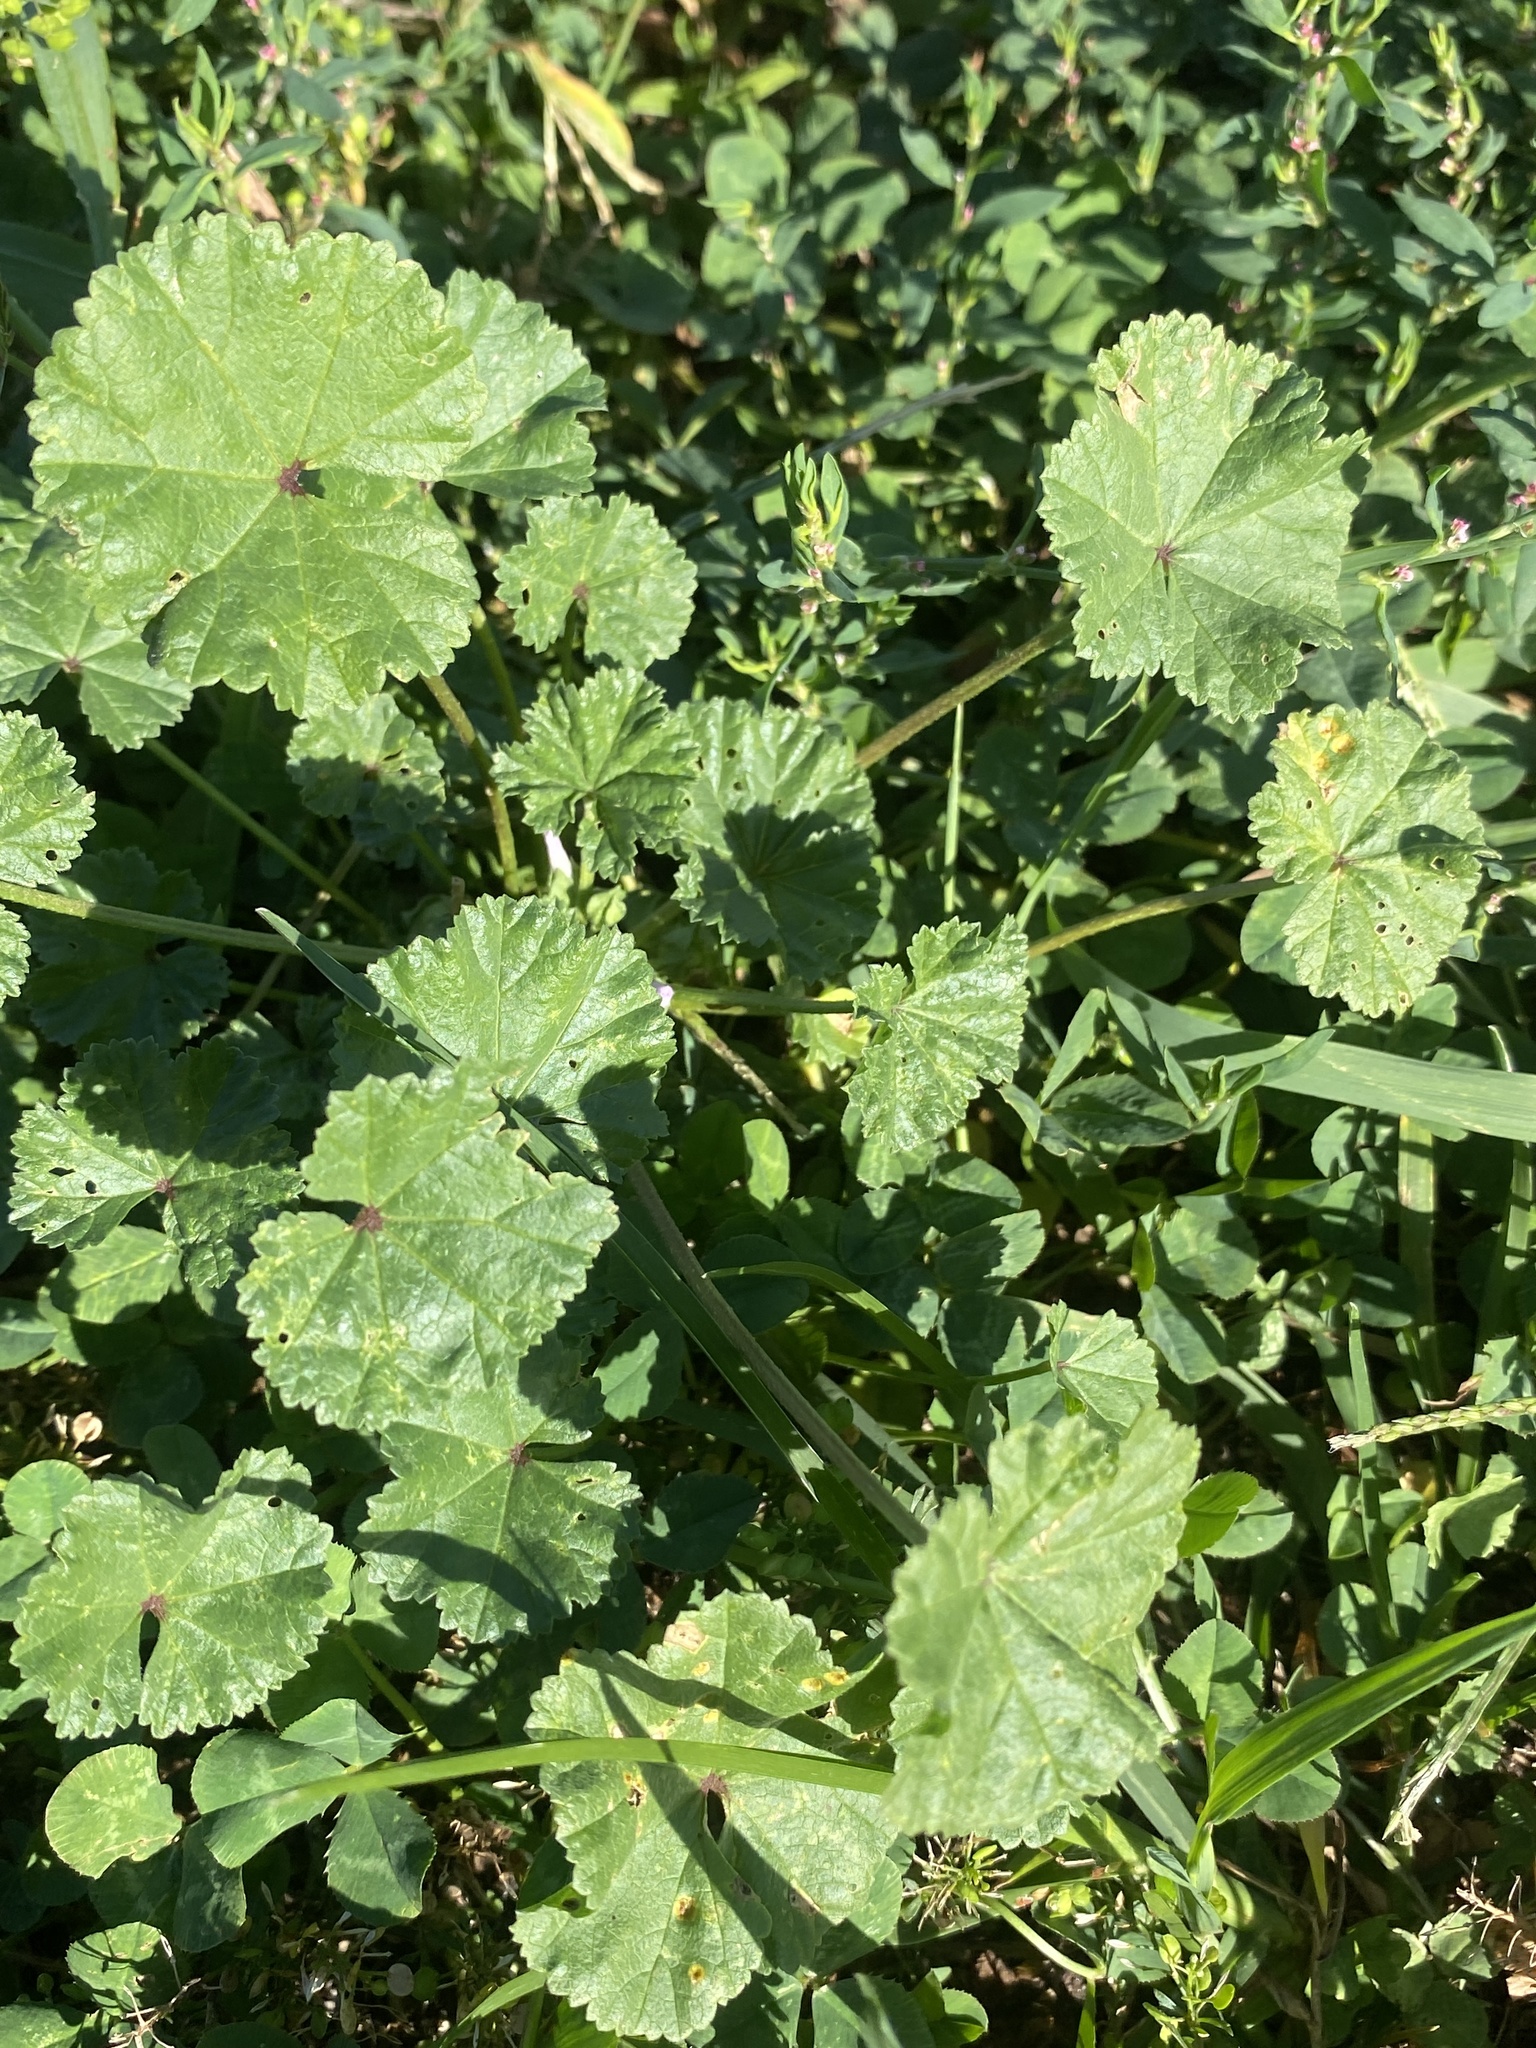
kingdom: Plantae
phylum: Tracheophyta
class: Magnoliopsida
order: Malvales
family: Malvaceae
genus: Malva
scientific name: Malva neglecta
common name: Common mallow
